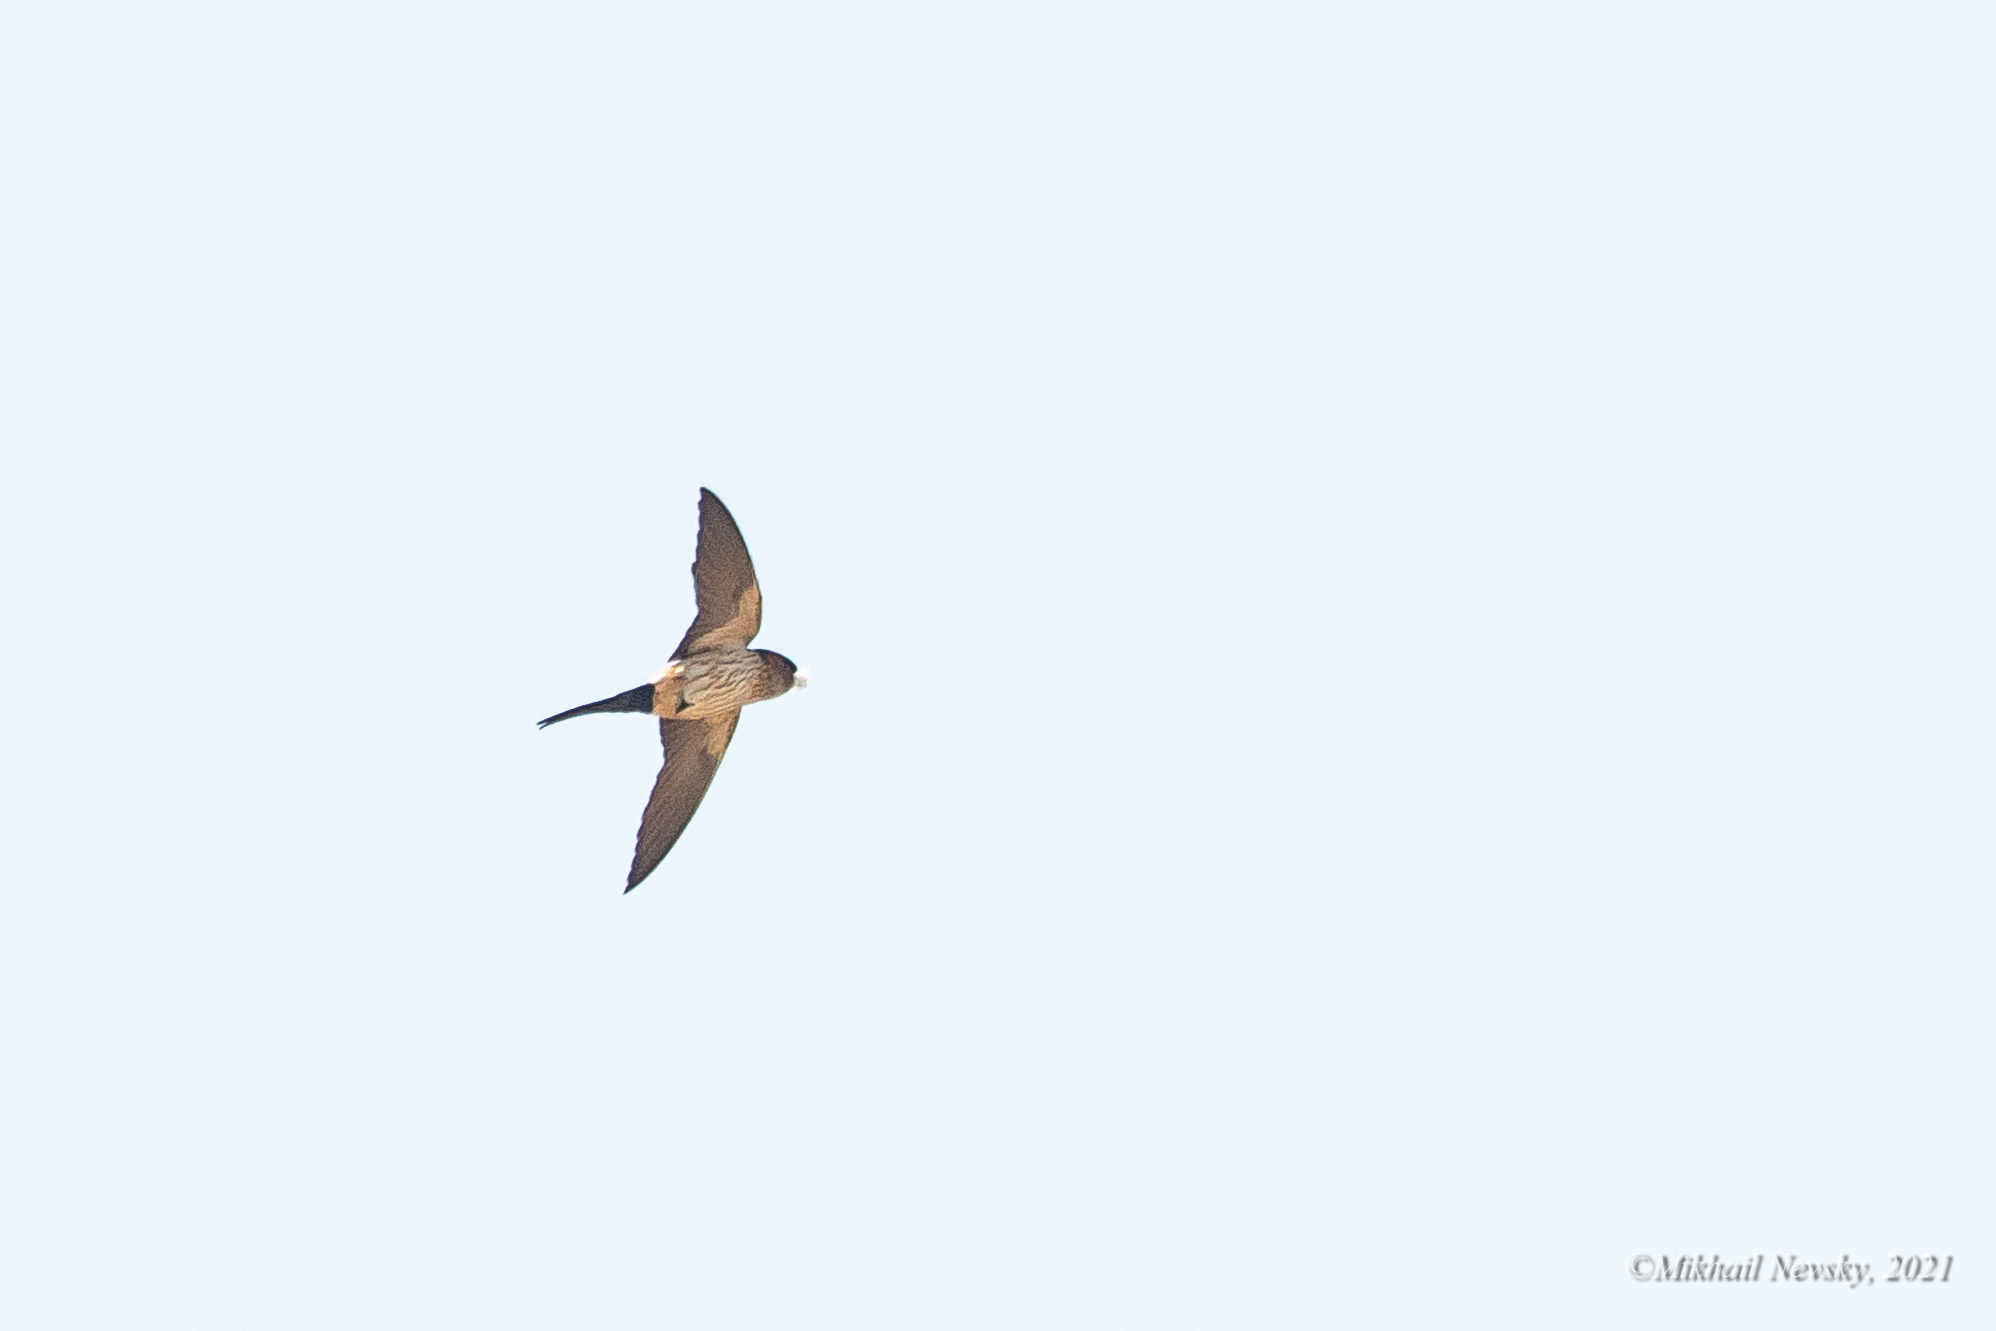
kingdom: Animalia
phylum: Chordata
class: Aves
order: Passeriformes
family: Hirundinidae
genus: Cecropis
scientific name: Cecropis daurica
